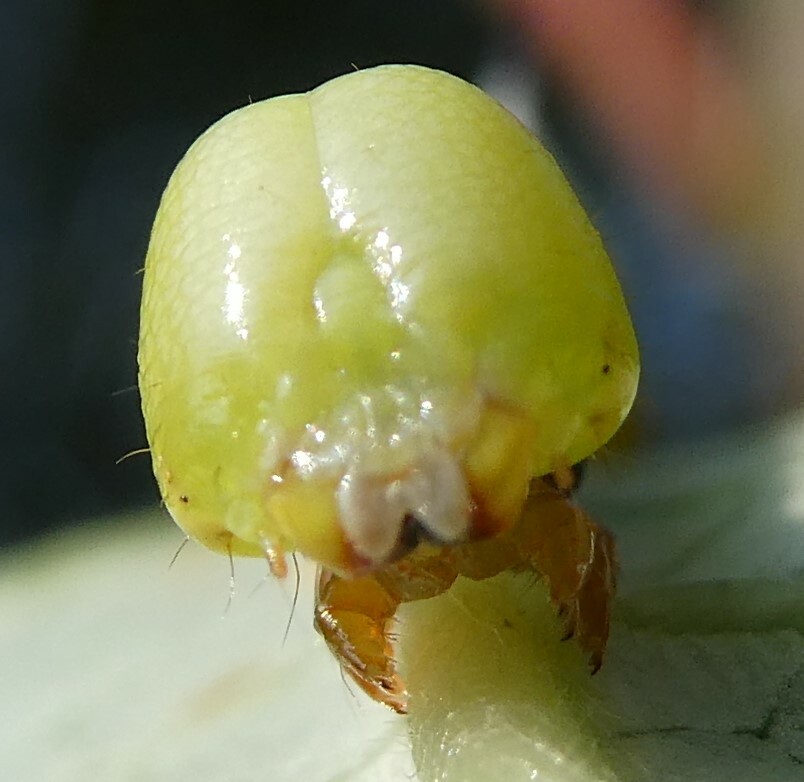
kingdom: Animalia
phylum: Arthropoda
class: Insecta
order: Lepidoptera
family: Notodontidae
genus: Pheosia
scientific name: Pheosia rimosa
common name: Black-rimmed prominent
